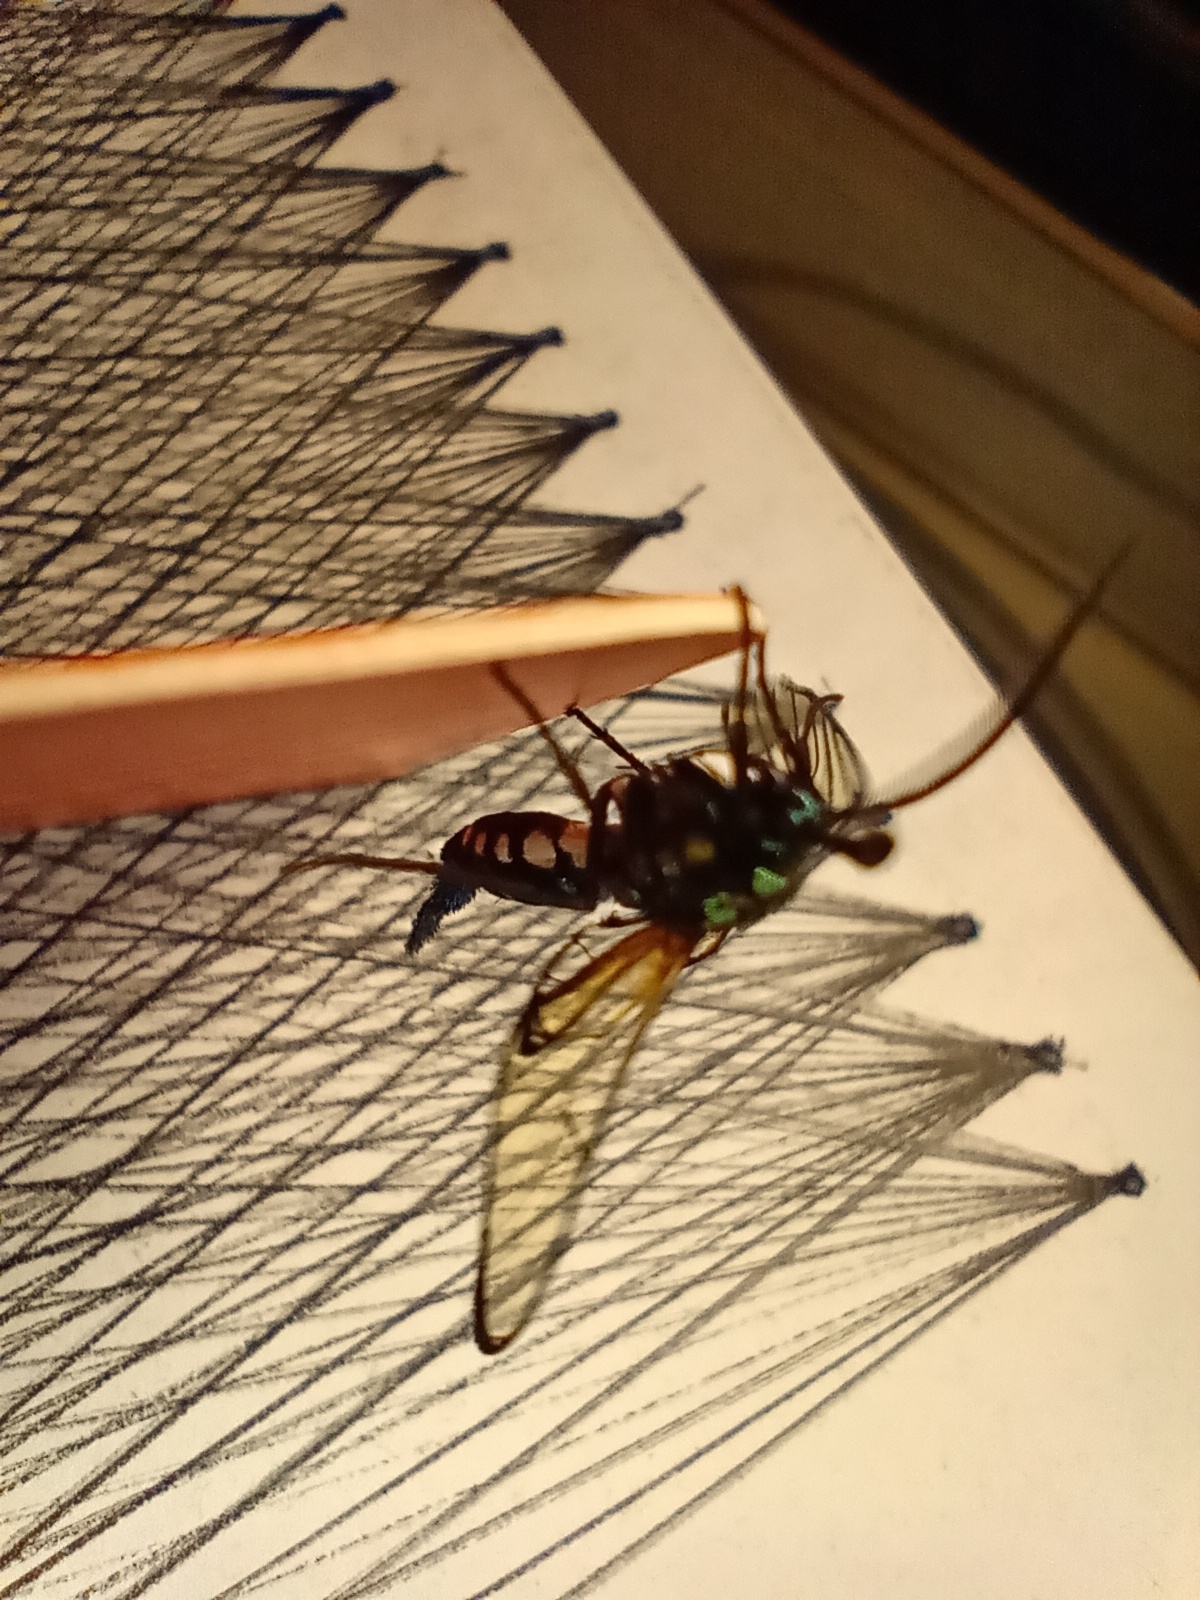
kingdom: Animalia
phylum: Arthropoda
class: Insecta
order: Lepidoptera
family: Erebidae
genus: Trichura
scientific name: Trichura cerberus
